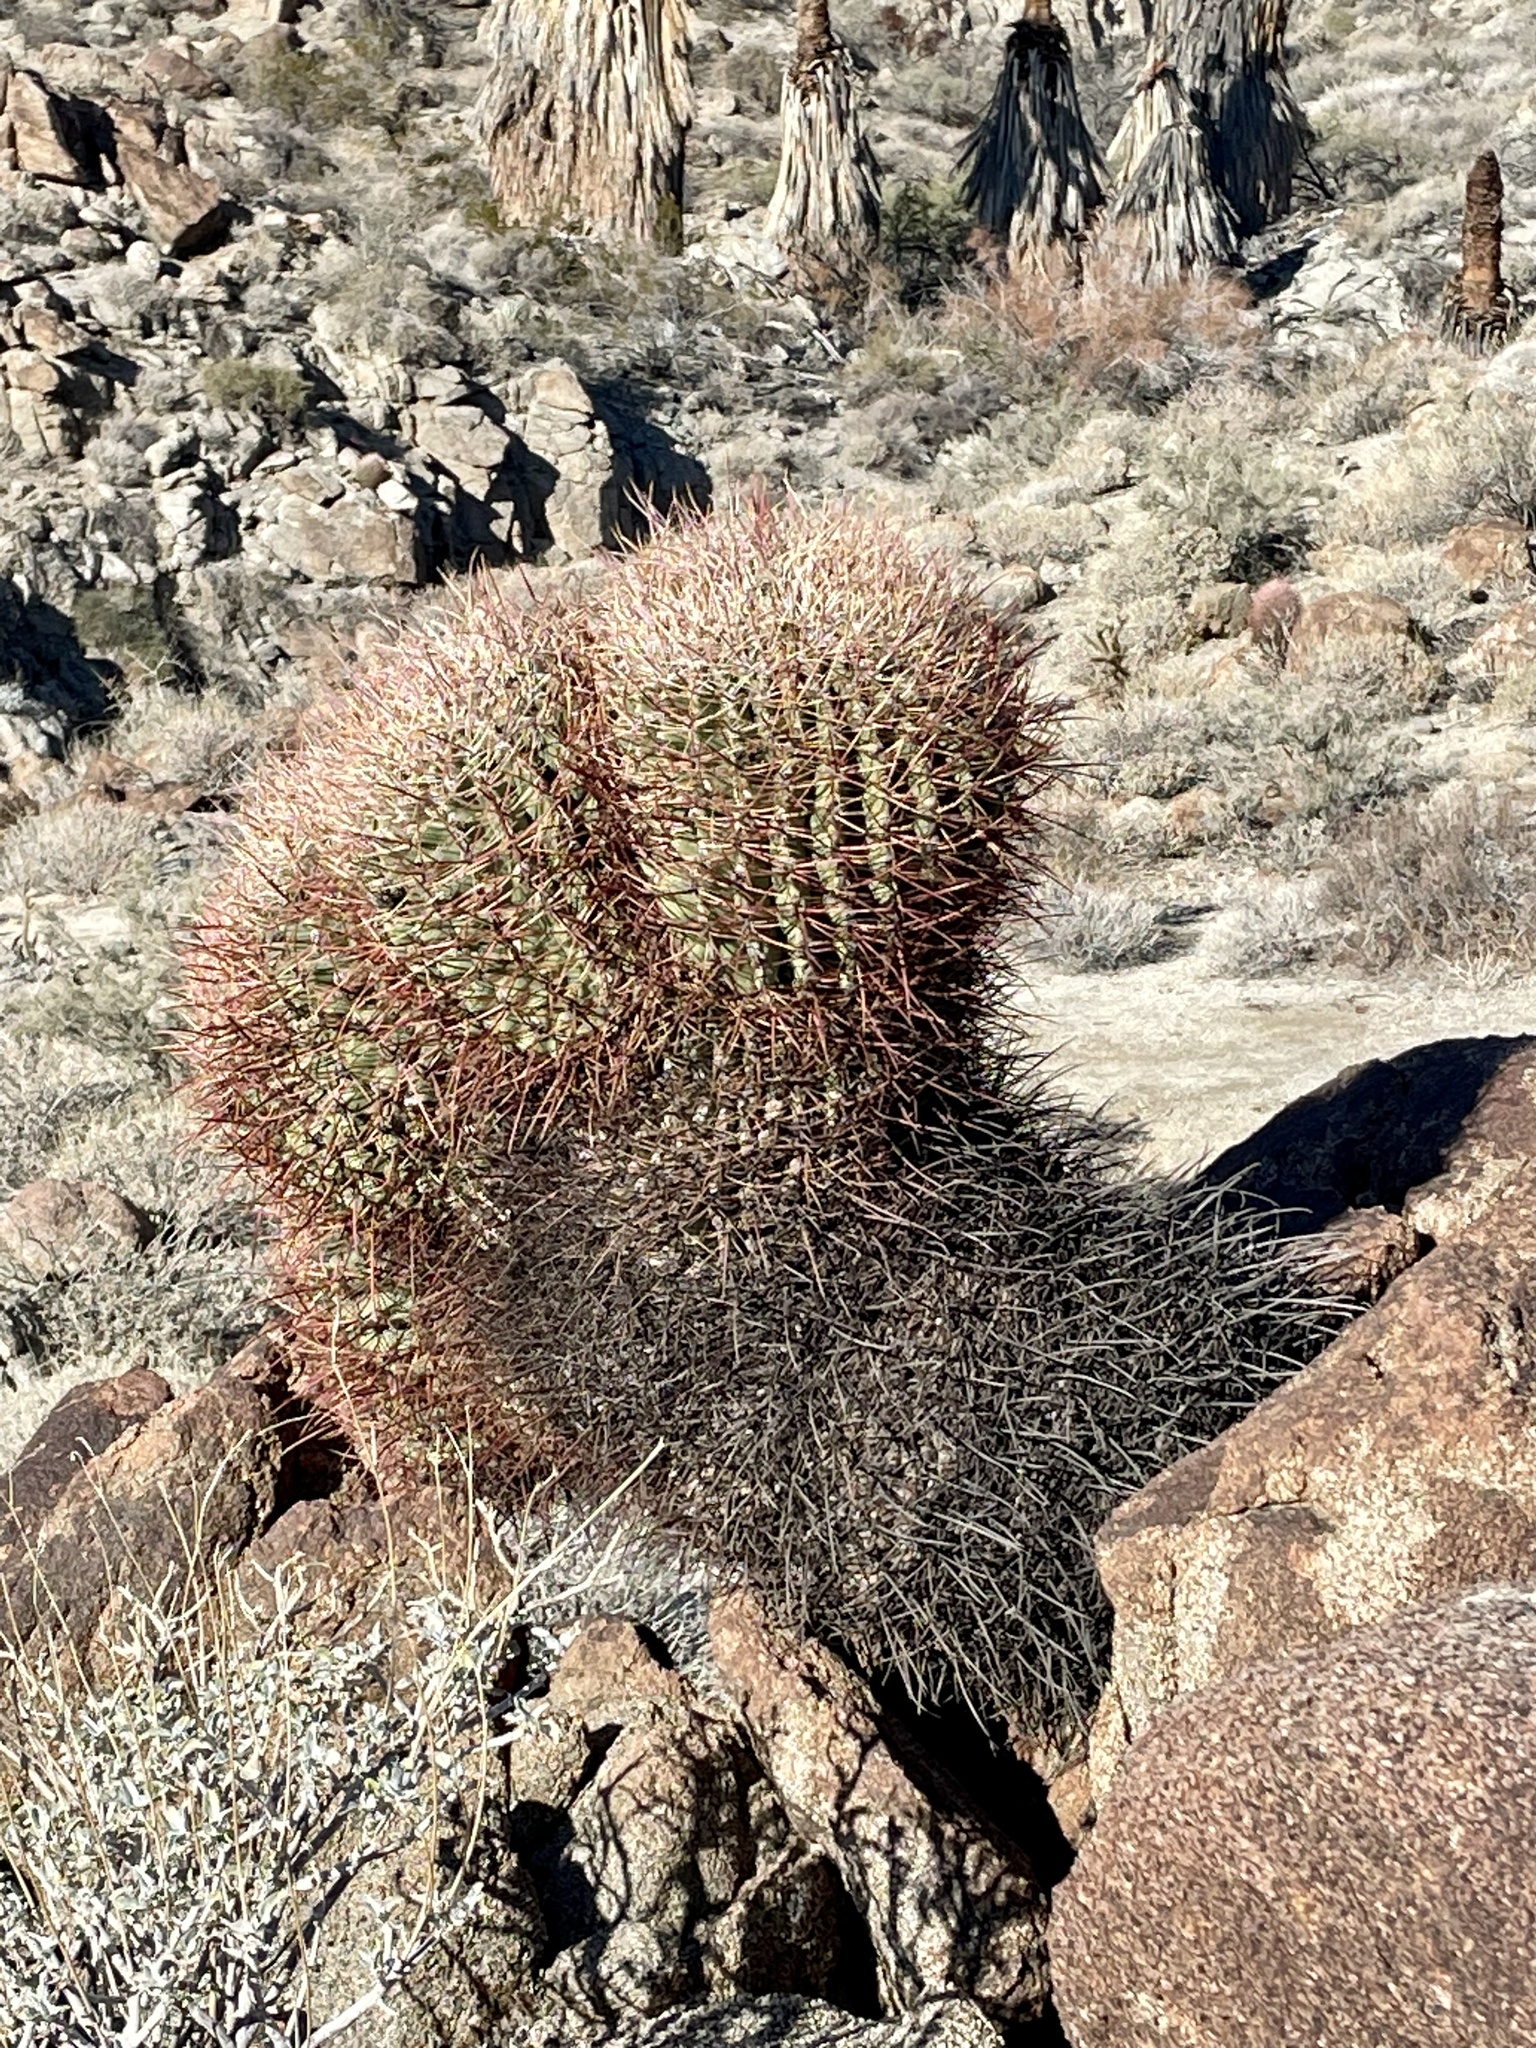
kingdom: Plantae
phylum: Tracheophyta
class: Magnoliopsida
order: Caryophyllales
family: Cactaceae
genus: Ferocactus
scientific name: Ferocactus cylindraceus
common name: California barrel cactus
